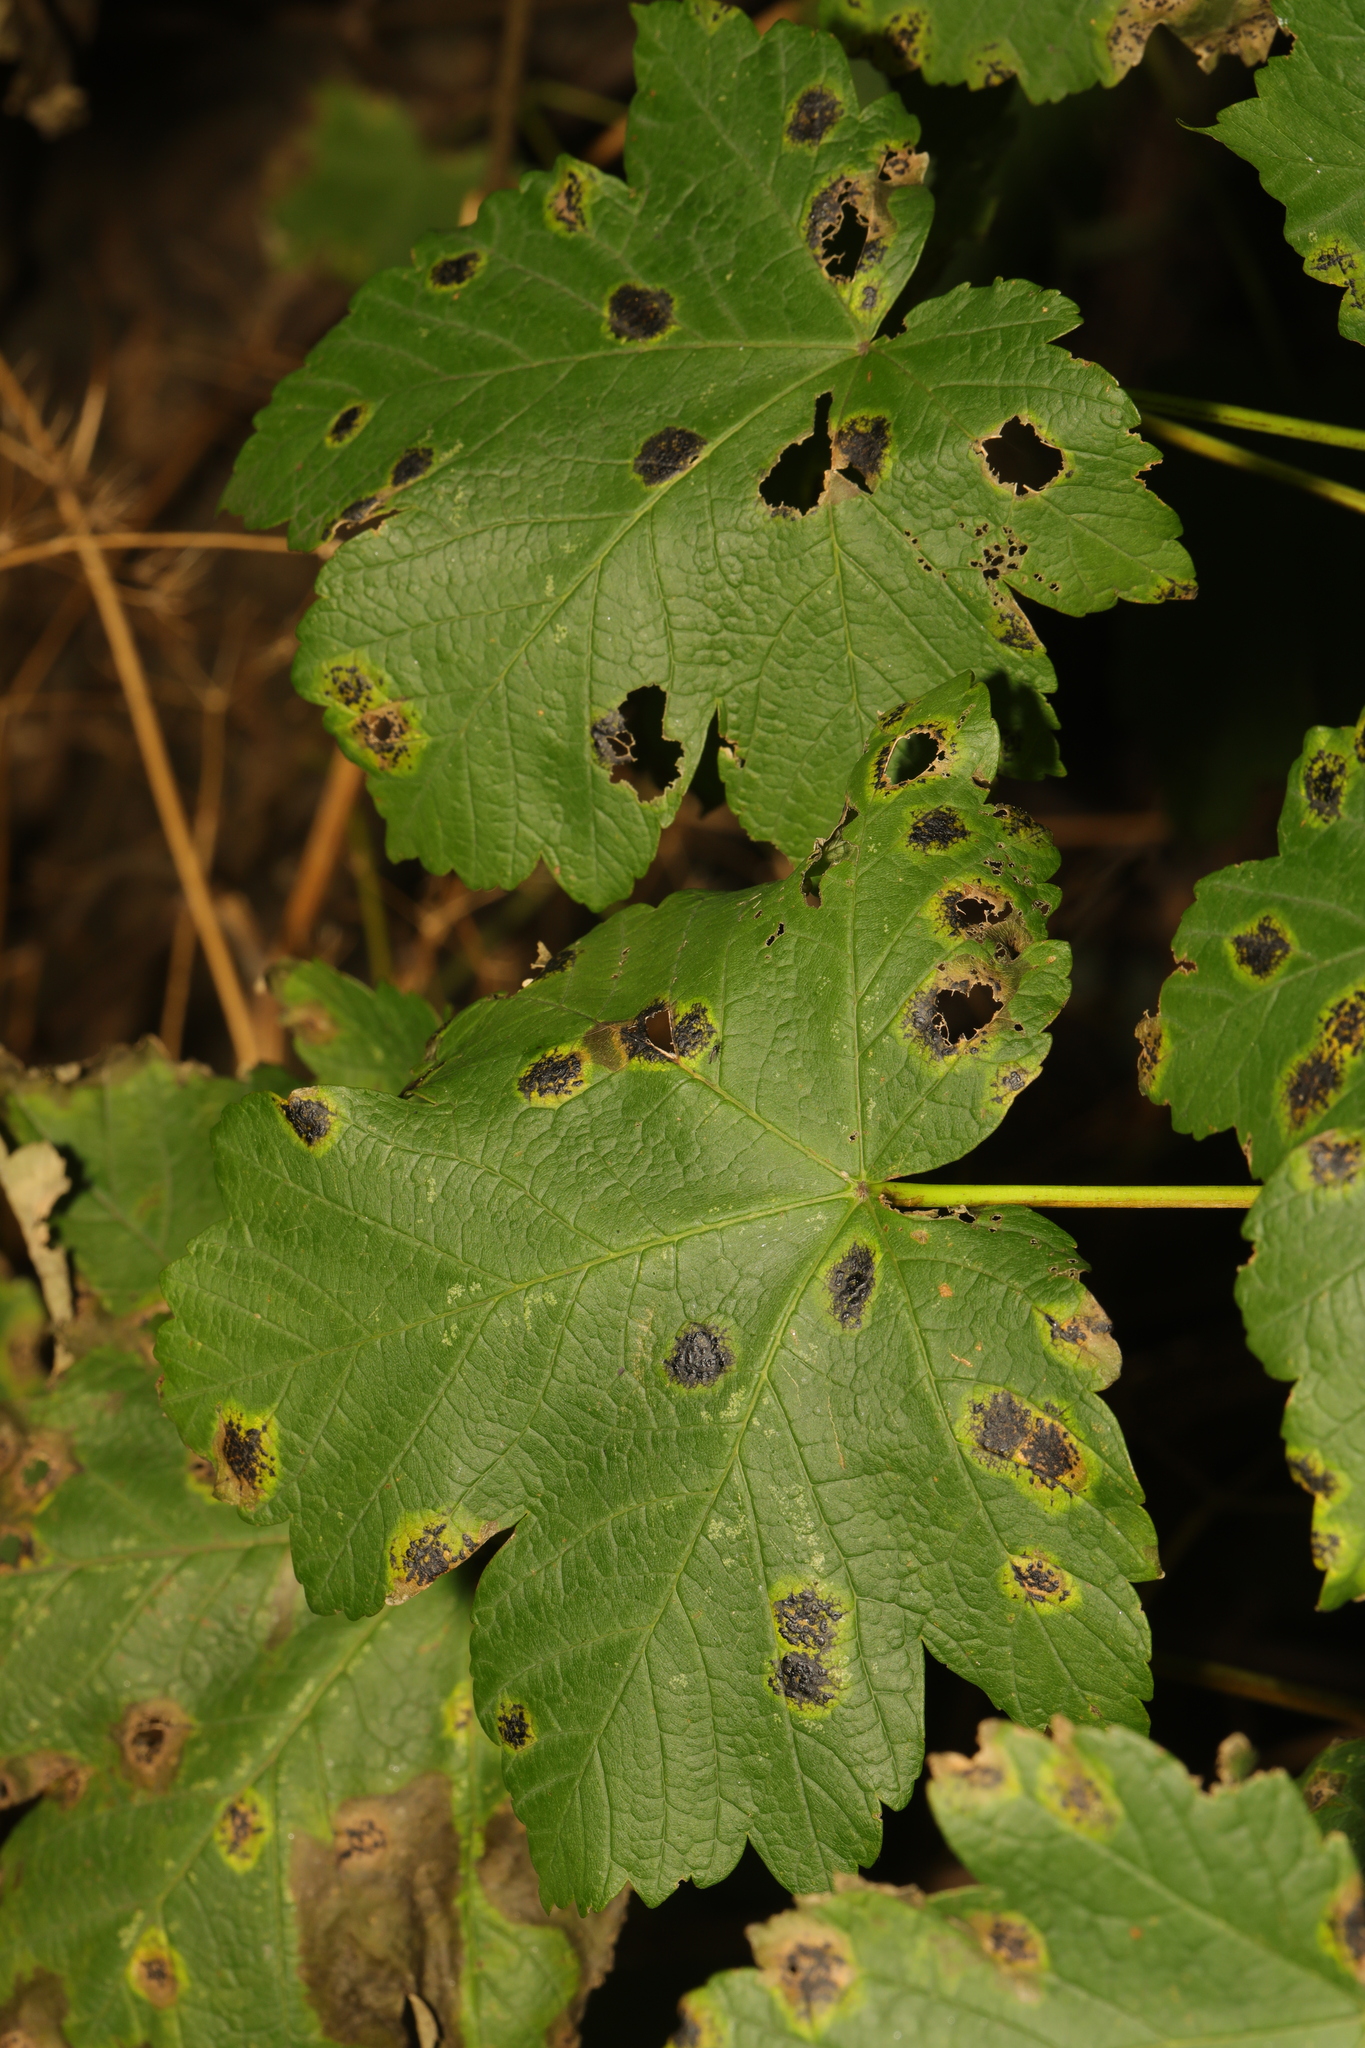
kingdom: Plantae
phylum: Tracheophyta
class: Magnoliopsida
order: Sapindales
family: Sapindaceae
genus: Acer
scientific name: Acer pseudoplatanus
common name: Sycamore
